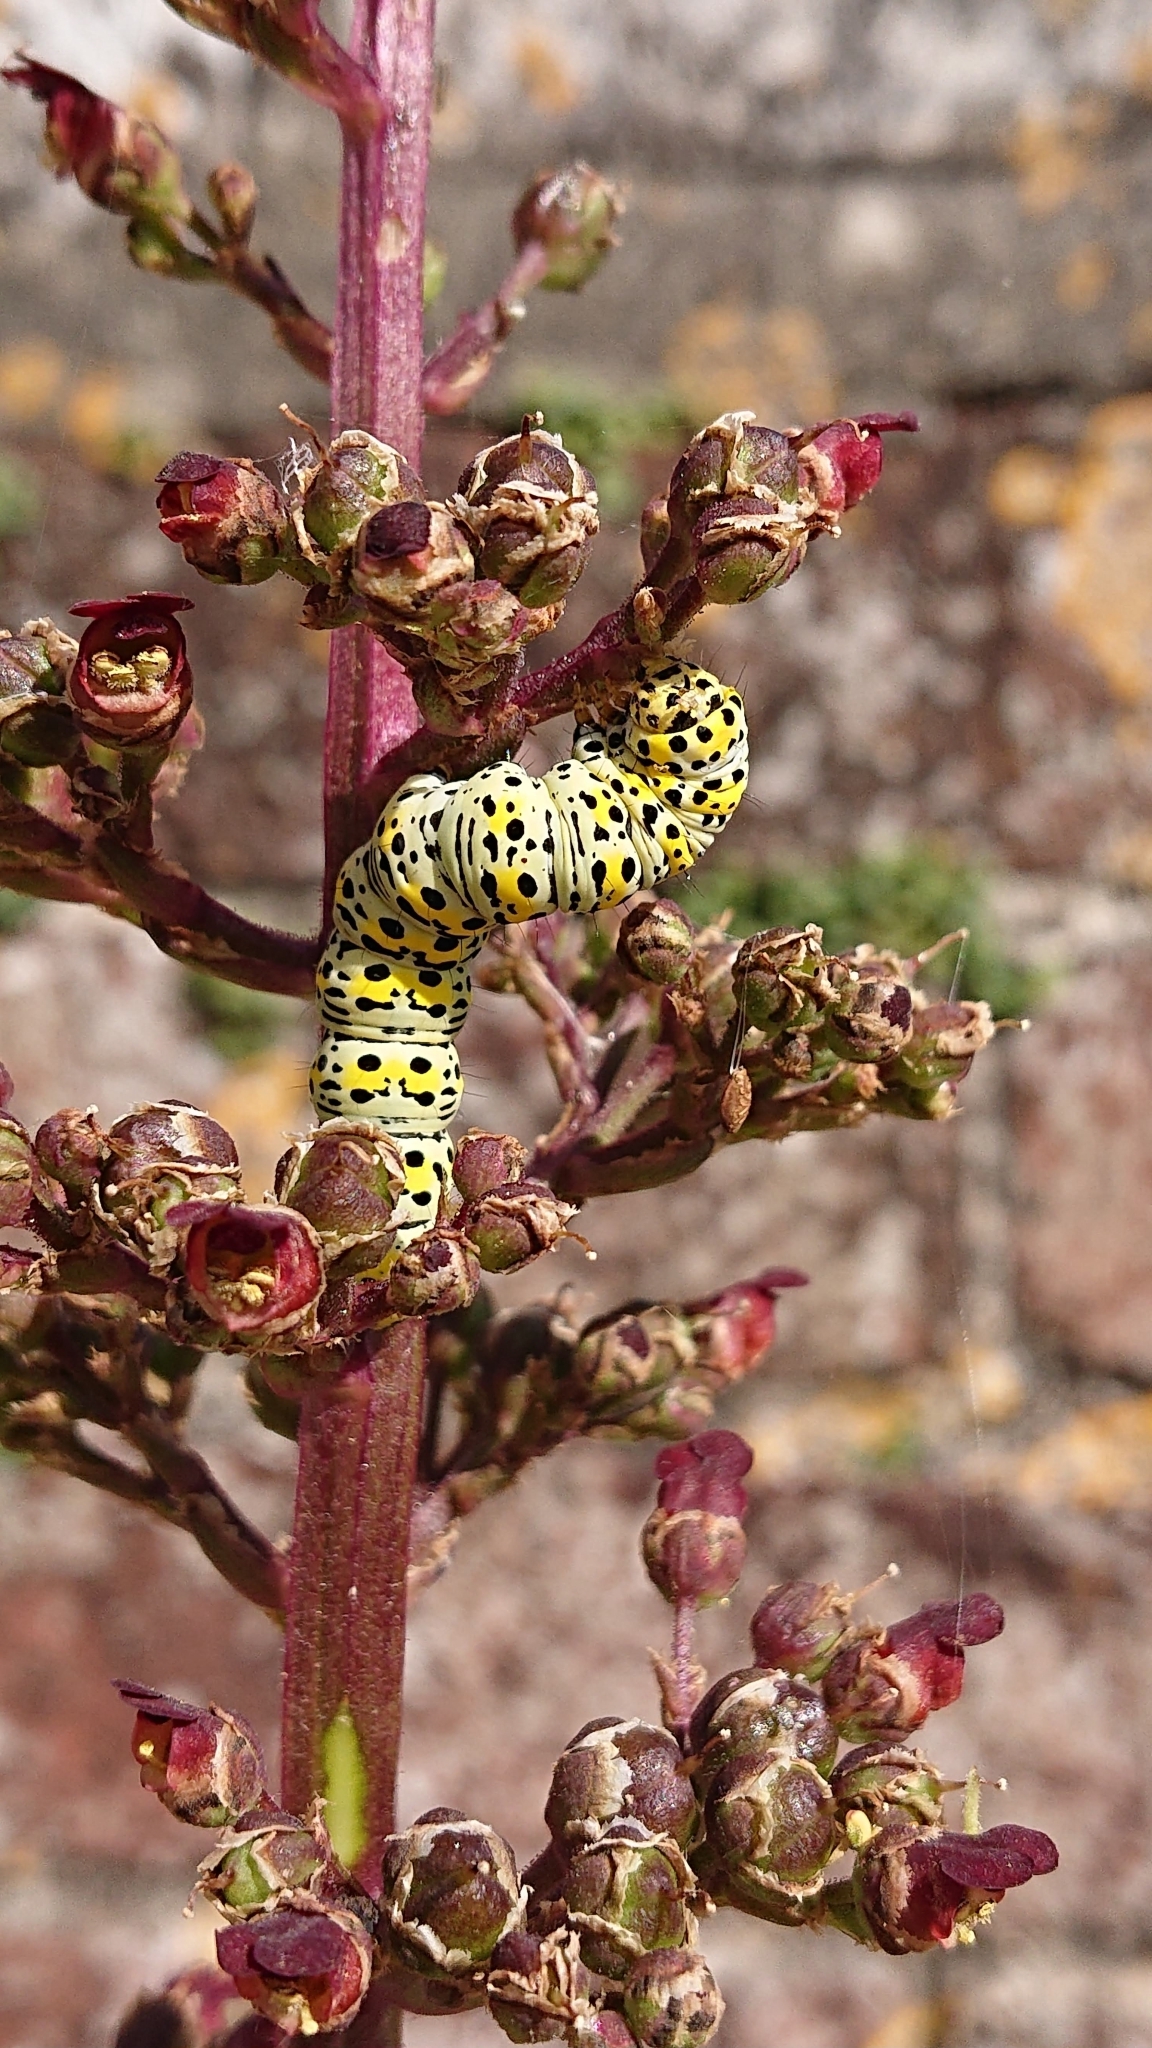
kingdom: Animalia
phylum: Arthropoda
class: Insecta
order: Lepidoptera
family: Noctuidae
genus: Cucullia
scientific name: Cucullia verbasci
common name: Mullein
